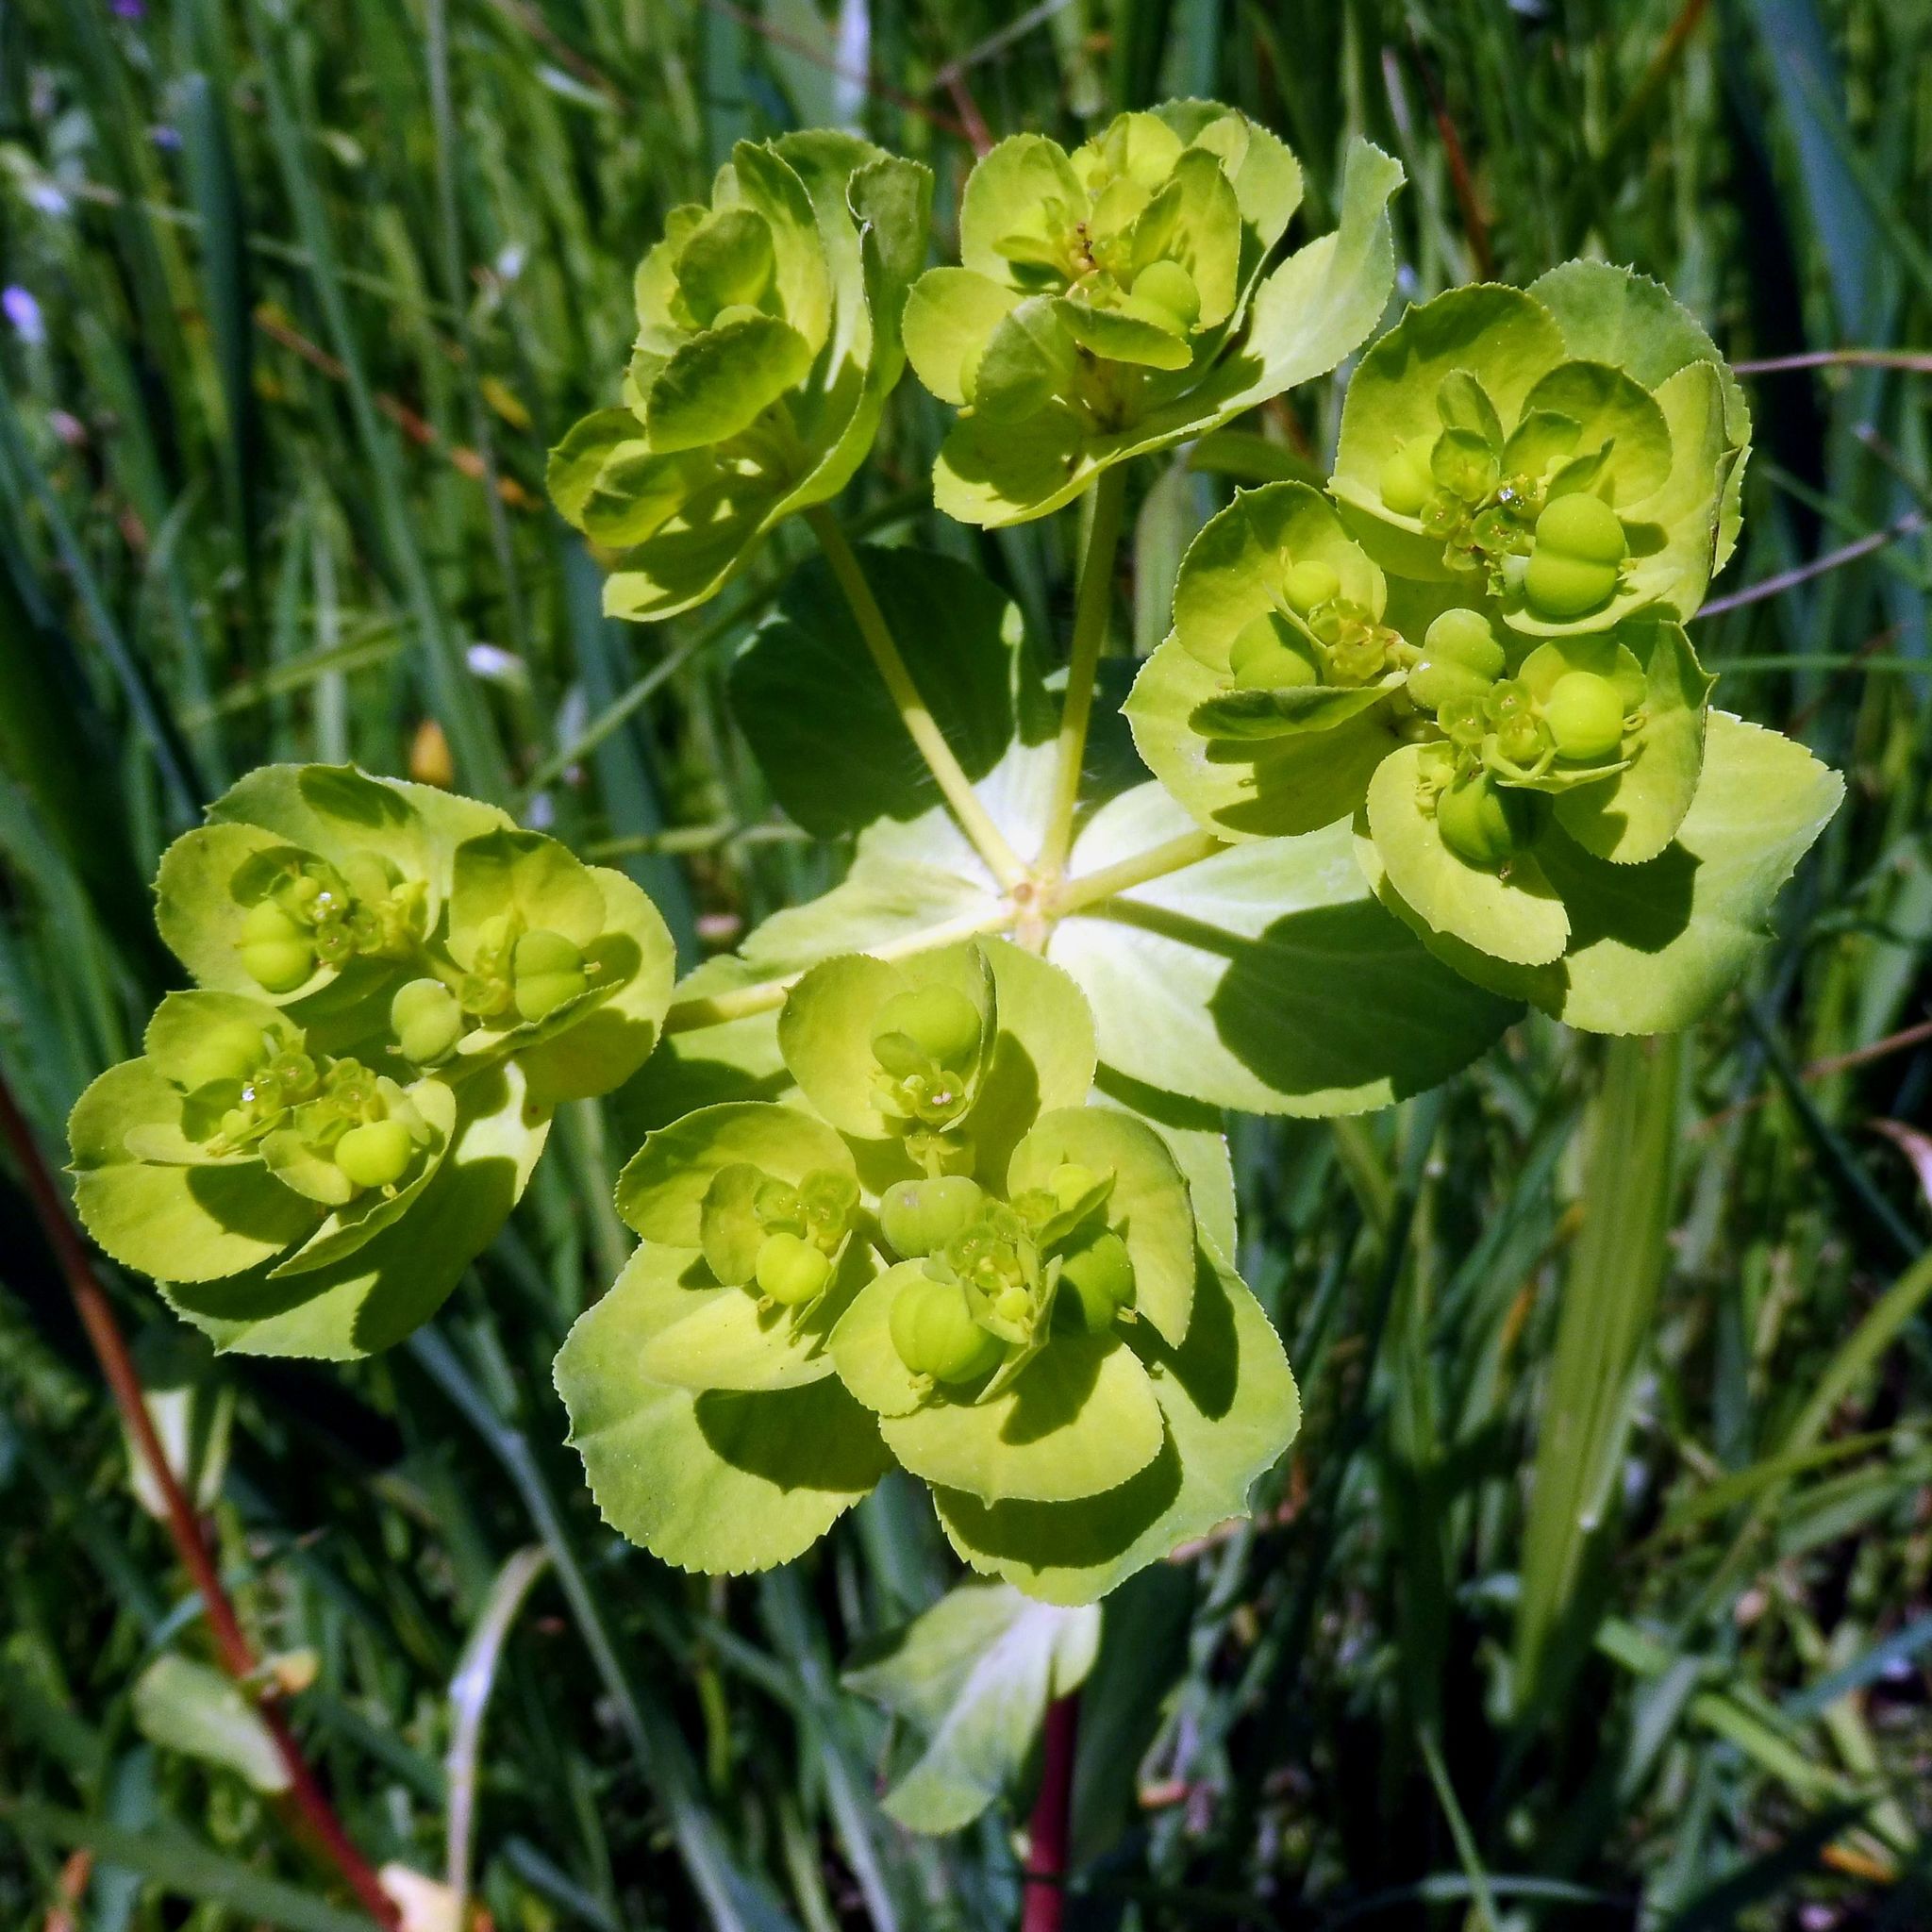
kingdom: Plantae
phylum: Tracheophyta
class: Magnoliopsida
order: Malpighiales
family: Euphorbiaceae
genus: Euphorbia
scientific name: Euphorbia helioscopia
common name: Sun spurge
